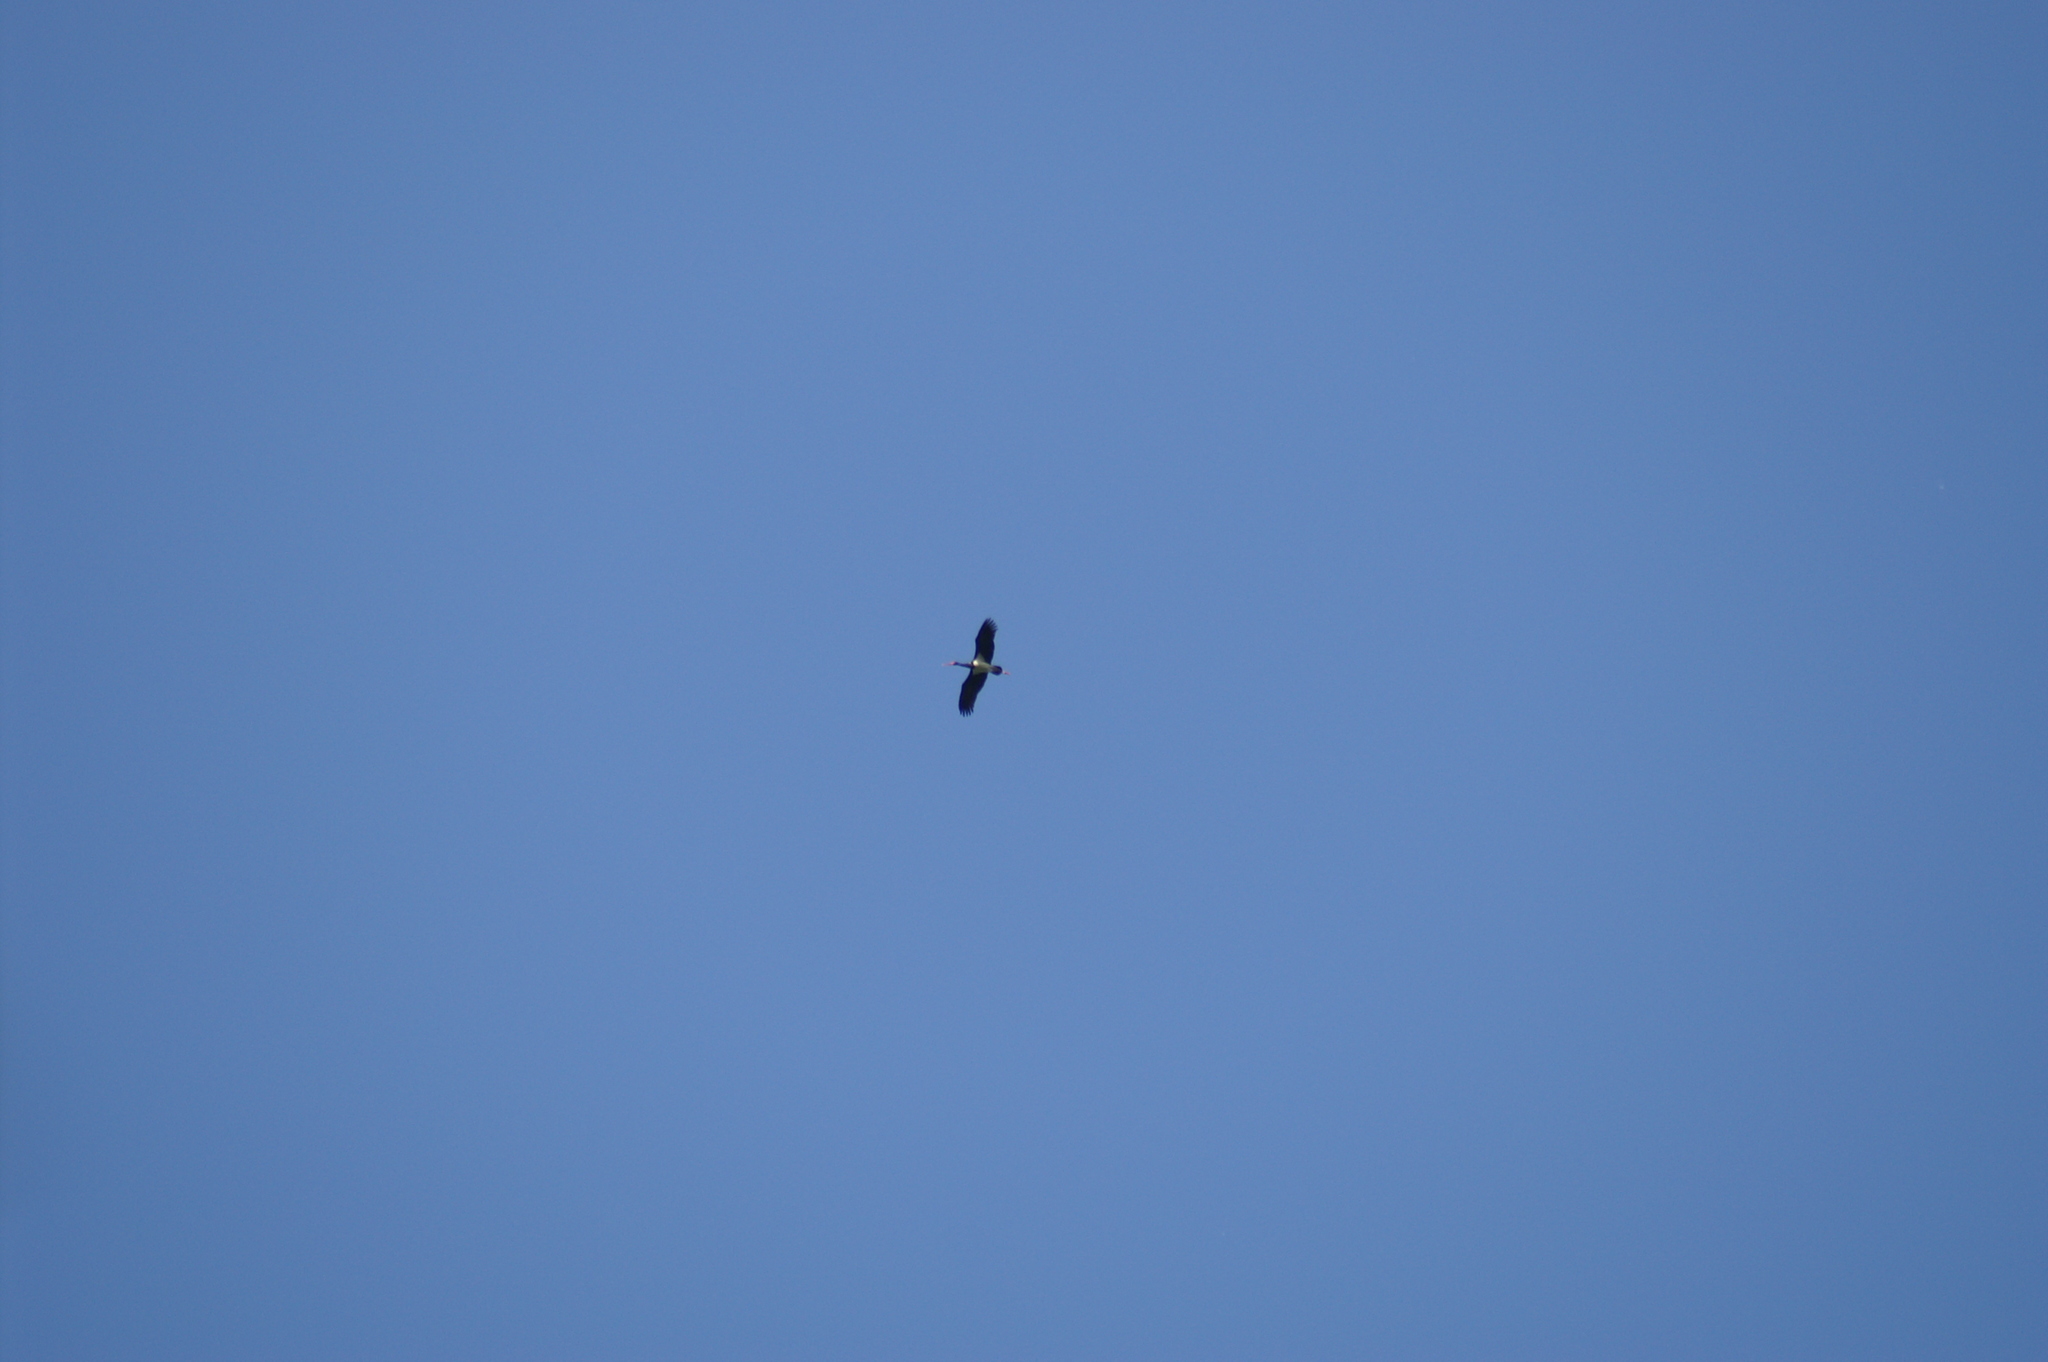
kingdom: Animalia
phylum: Chordata
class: Aves
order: Ciconiiformes
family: Ciconiidae
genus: Ciconia
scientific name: Ciconia nigra
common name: Black stork
